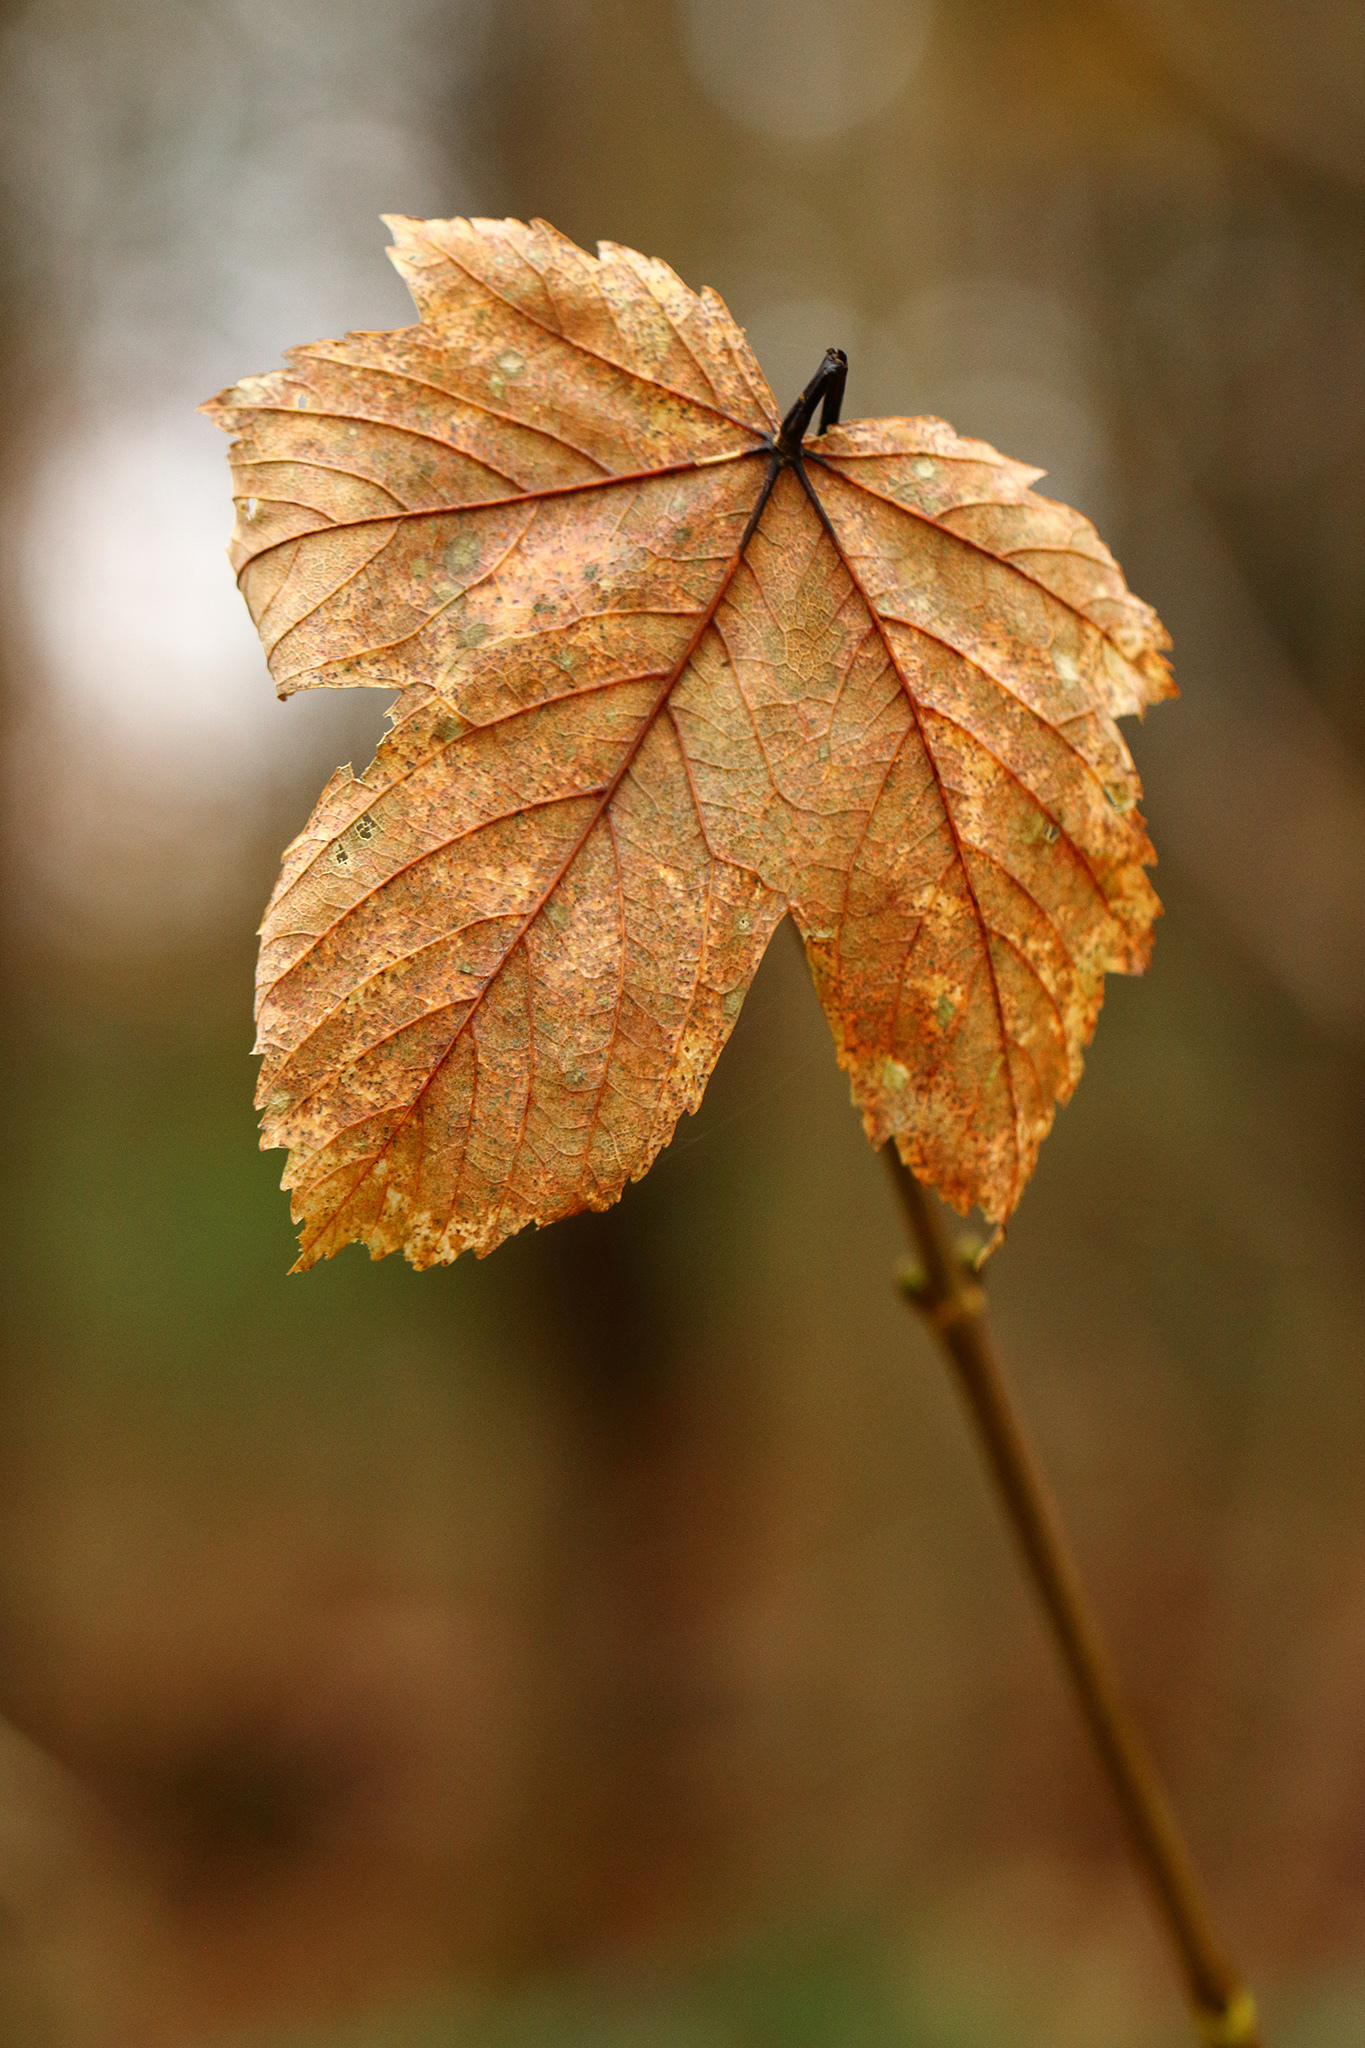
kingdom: Plantae
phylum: Tracheophyta
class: Magnoliopsida
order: Sapindales
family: Sapindaceae
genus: Acer
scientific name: Acer pseudoplatanus
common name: Sycamore
